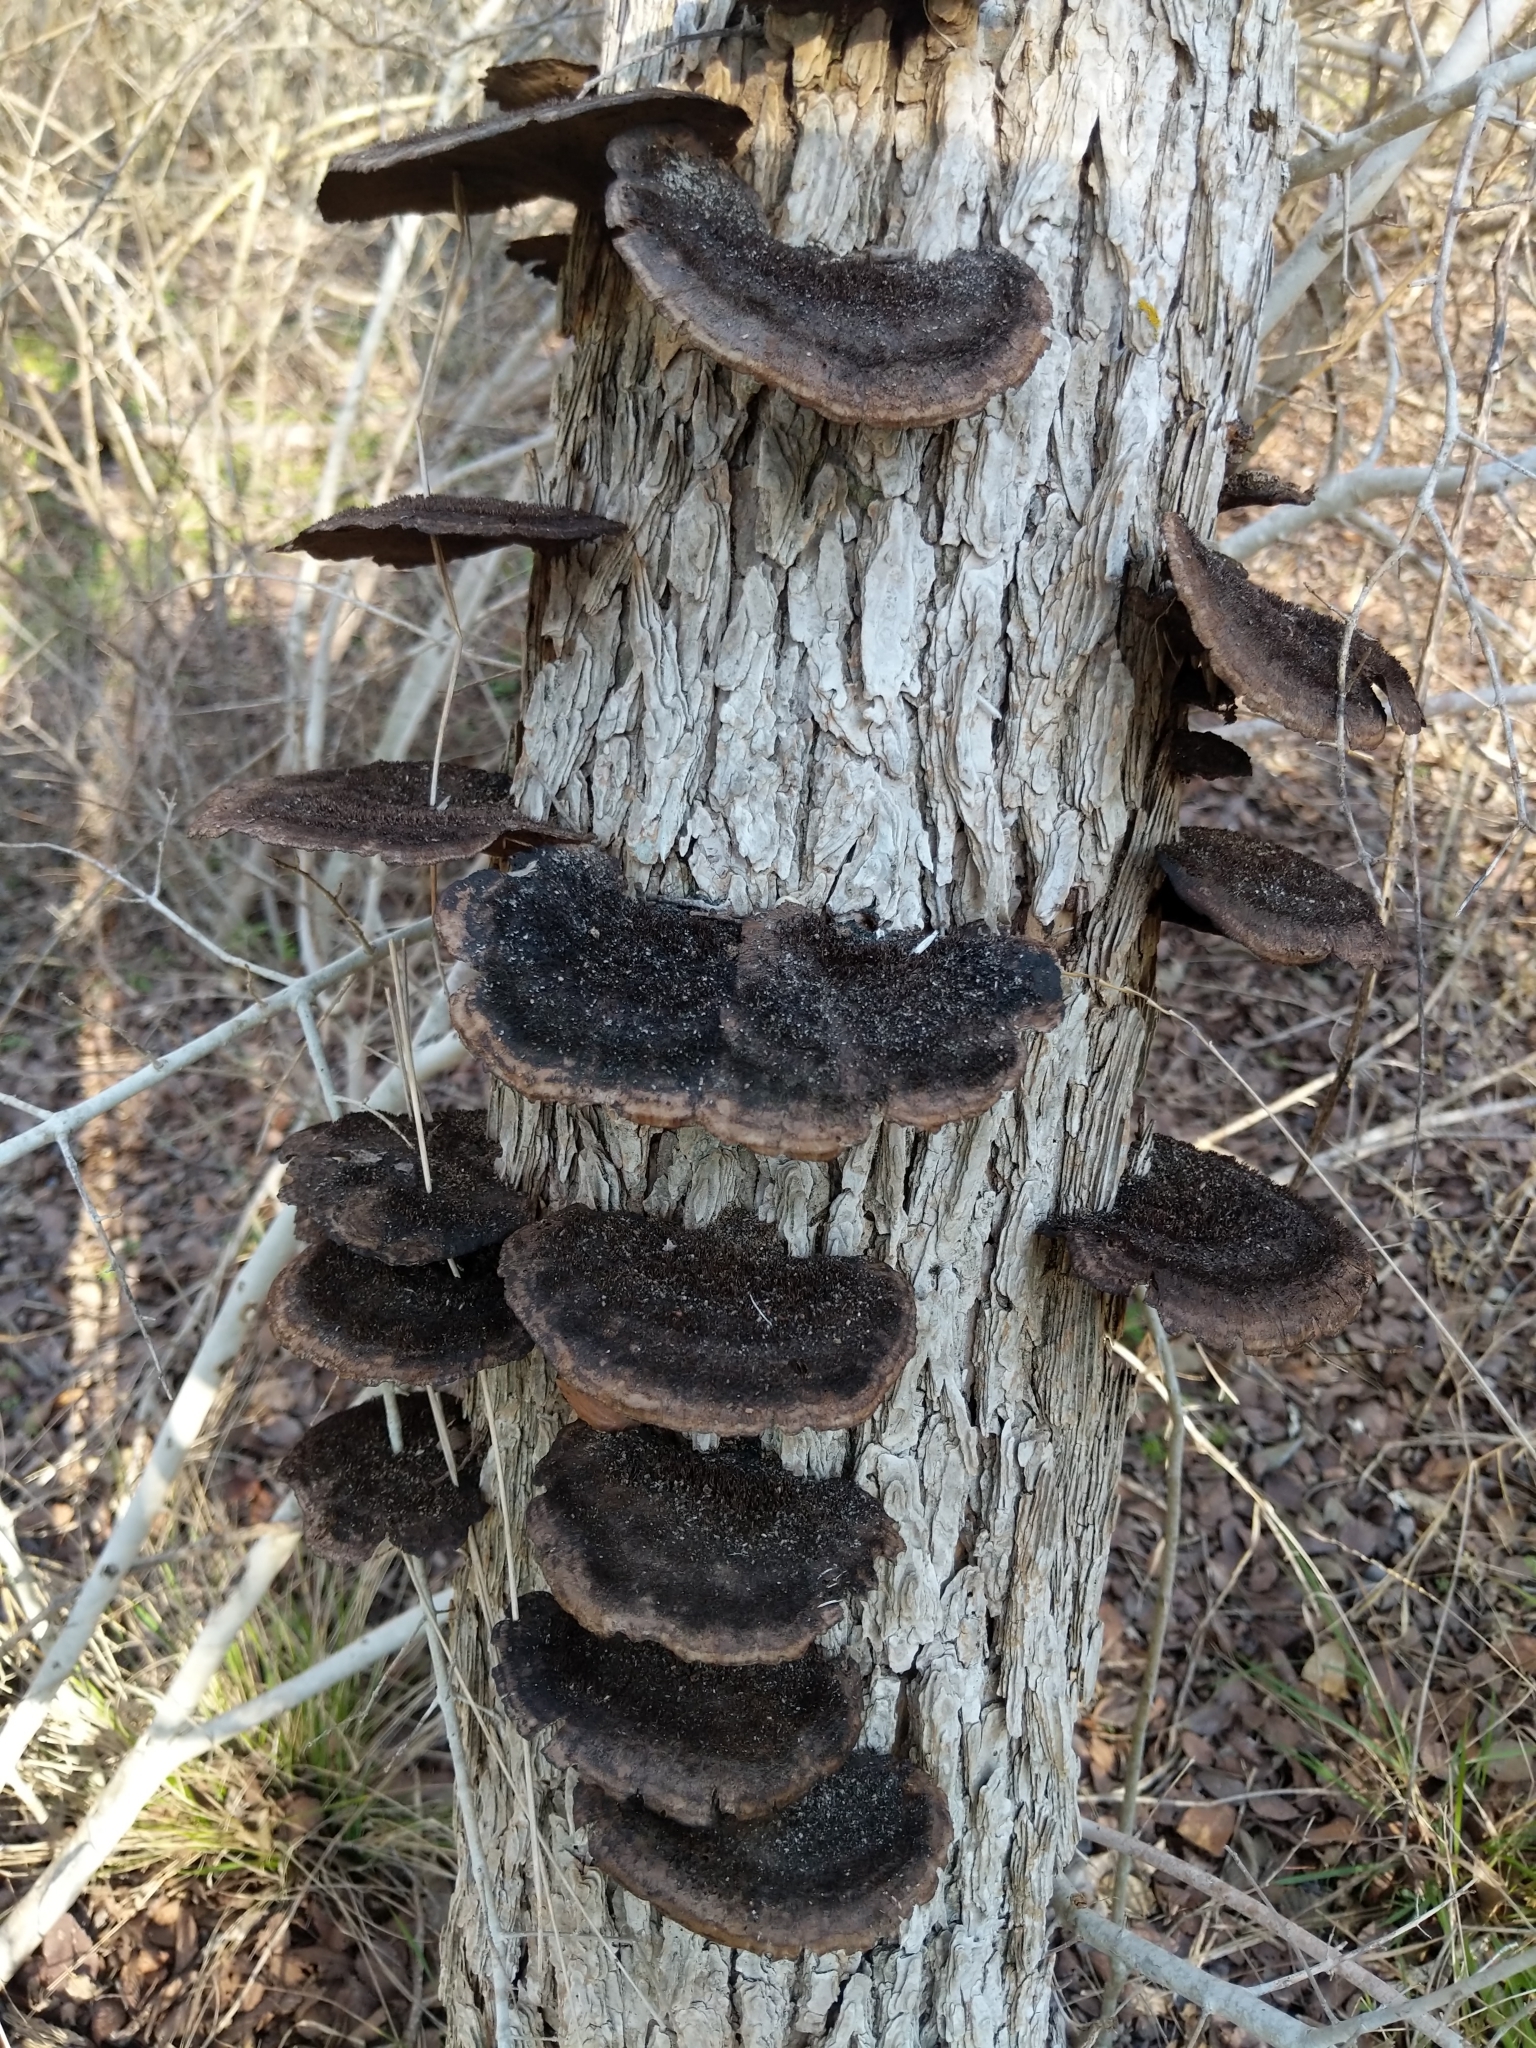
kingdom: Fungi
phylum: Basidiomycota
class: Agaricomycetes
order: Polyporales
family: Cerrenaceae
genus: Cerrena
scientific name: Cerrena hydnoides
